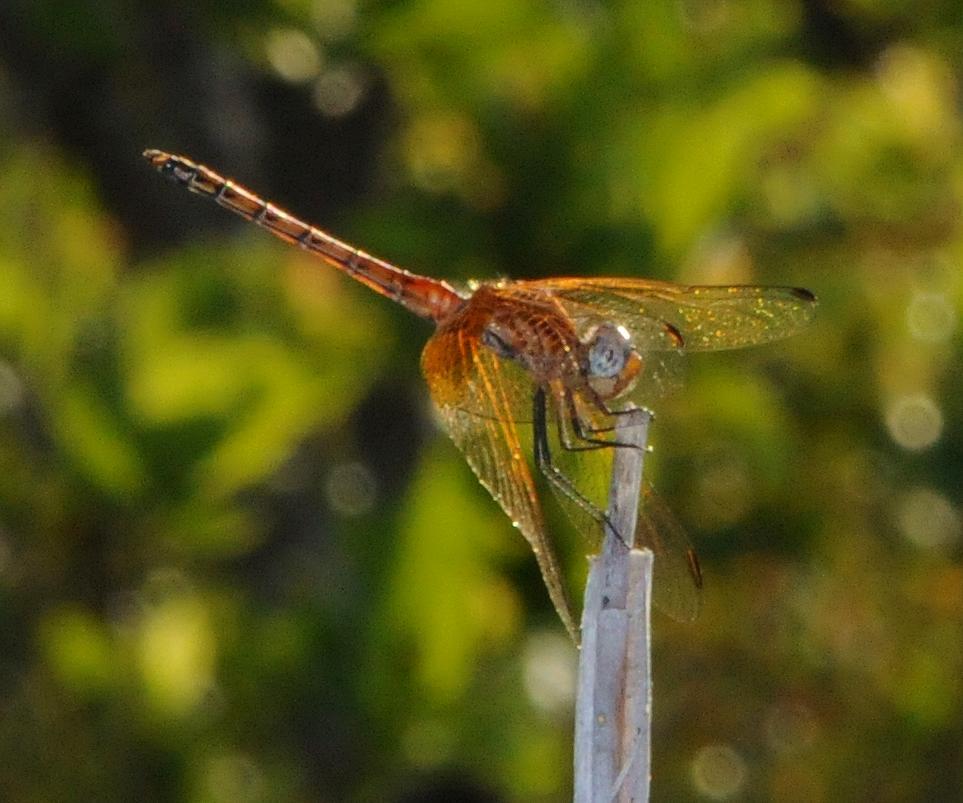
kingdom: Animalia
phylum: Arthropoda
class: Insecta
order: Odonata
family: Libellulidae
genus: Trithemis
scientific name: Trithemis pluvialis
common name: Russet dropwing
